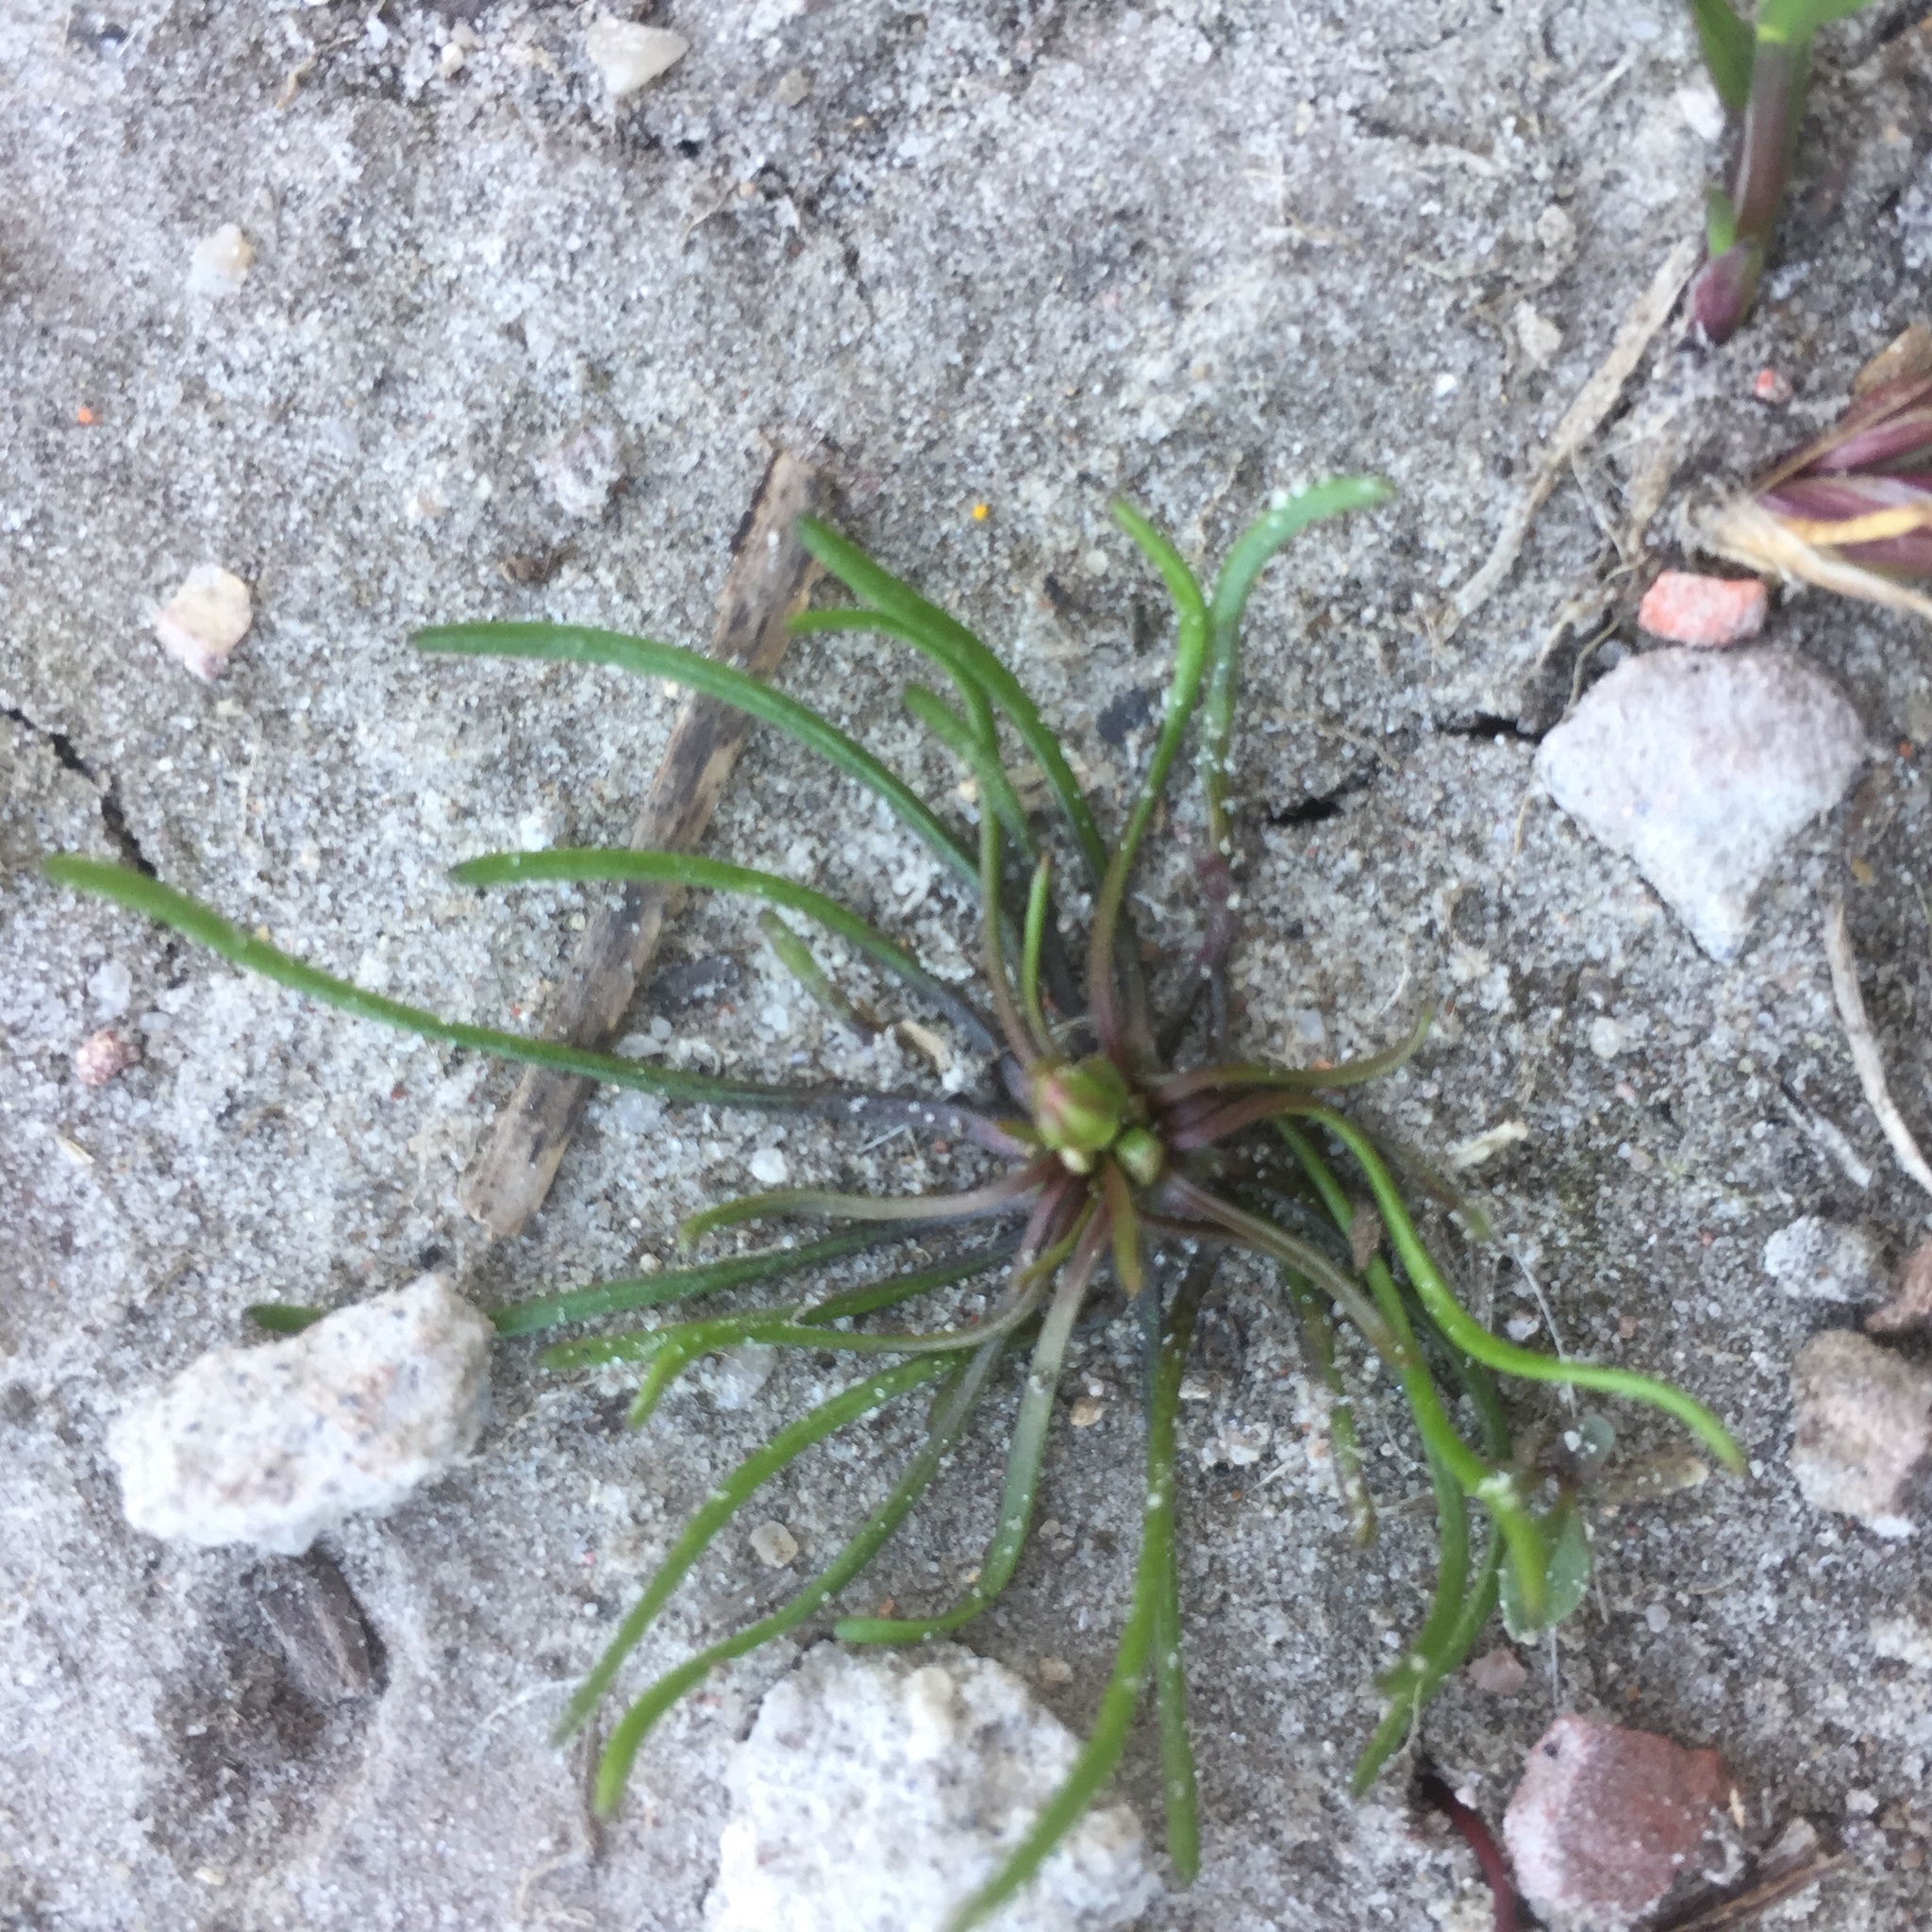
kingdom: Plantae
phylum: Tracheophyta
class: Magnoliopsida
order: Ranunculales
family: Ranunculaceae
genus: Myosurus
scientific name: Myosurus minimus
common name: Mousetail
